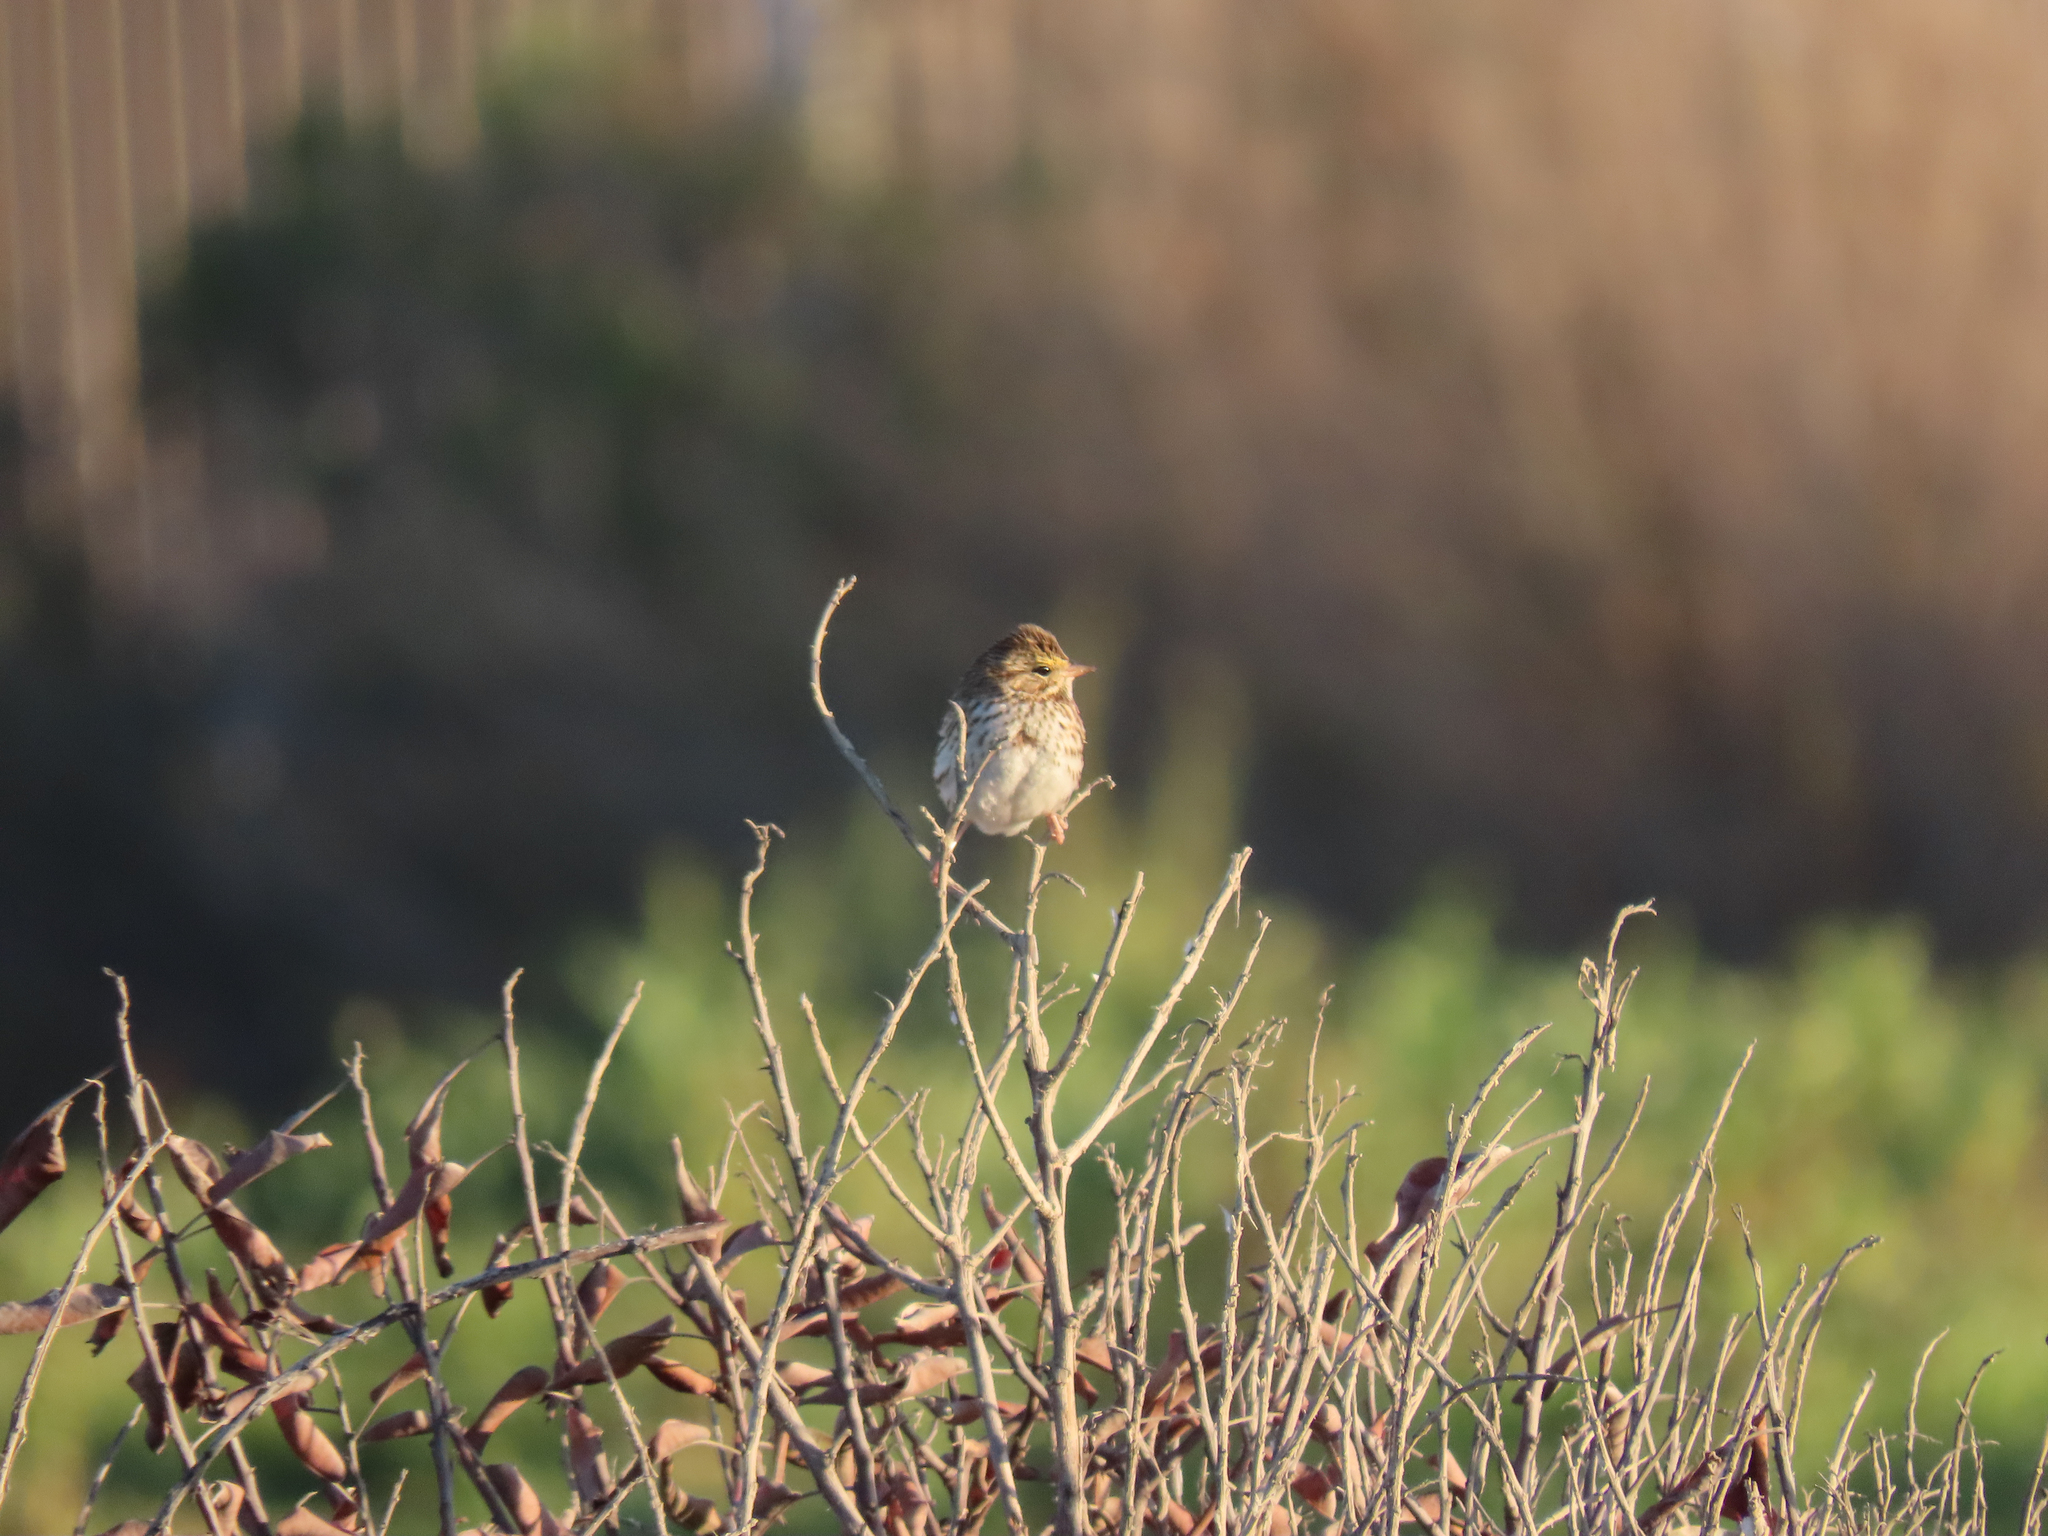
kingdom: Animalia
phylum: Chordata
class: Aves
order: Passeriformes
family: Passerellidae
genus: Passerculus
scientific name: Passerculus sandwichensis
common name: Savannah sparrow
